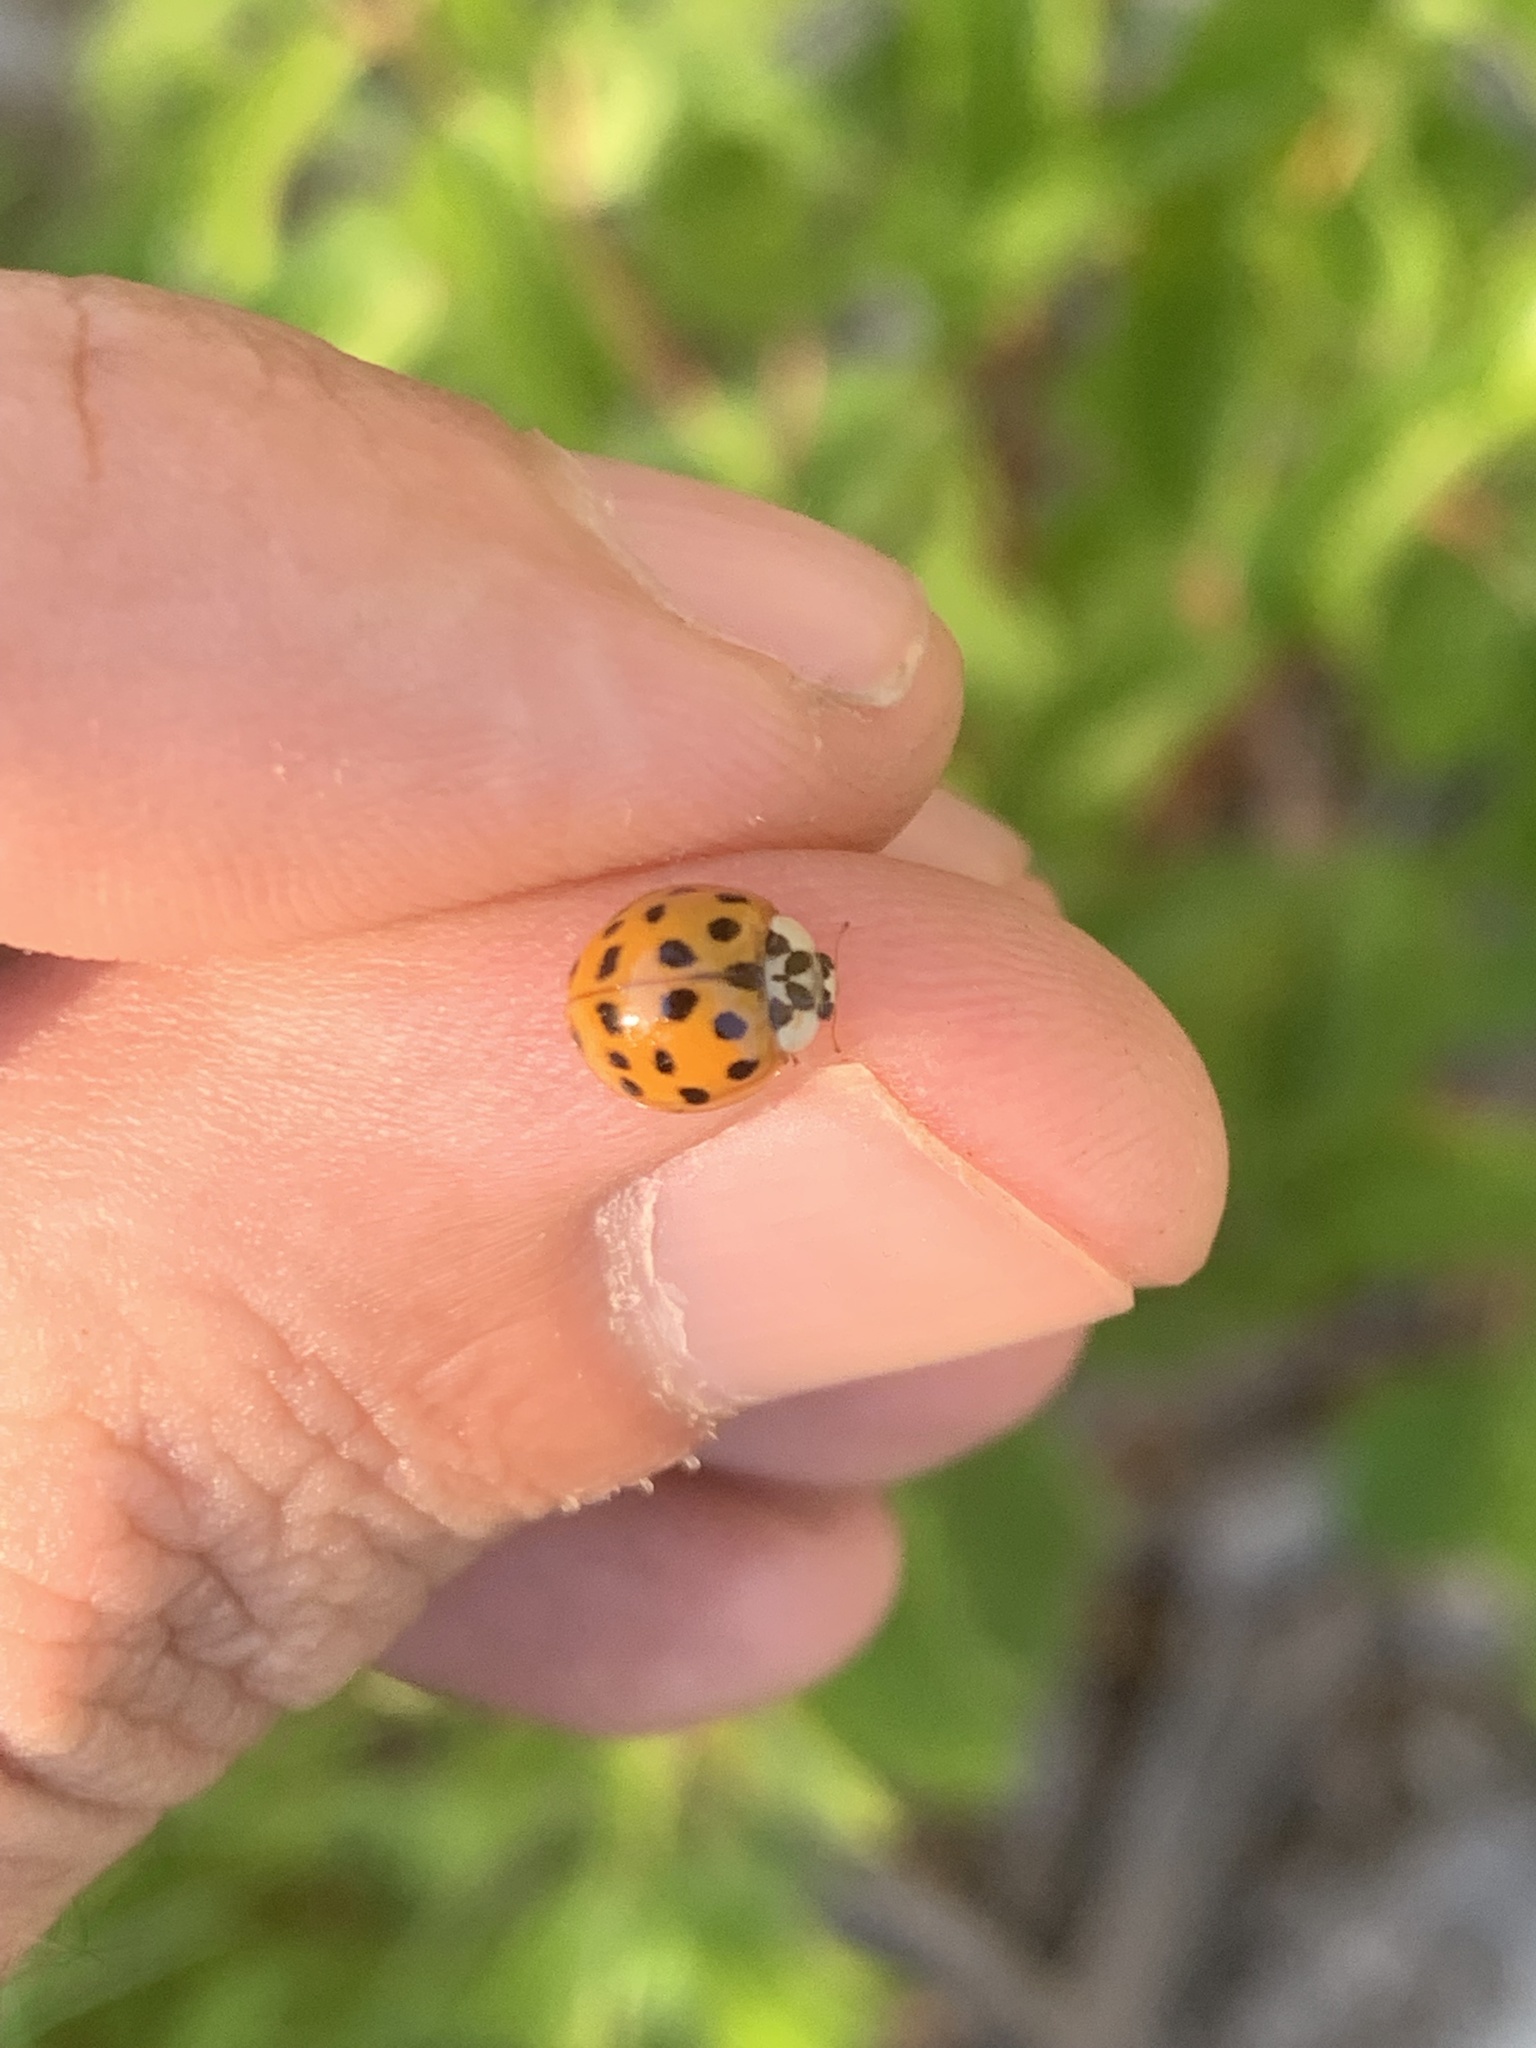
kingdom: Animalia
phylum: Arthropoda
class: Insecta
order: Coleoptera
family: Coccinellidae
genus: Harmonia
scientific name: Harmonia axyridis
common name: Harlequin ladybird
